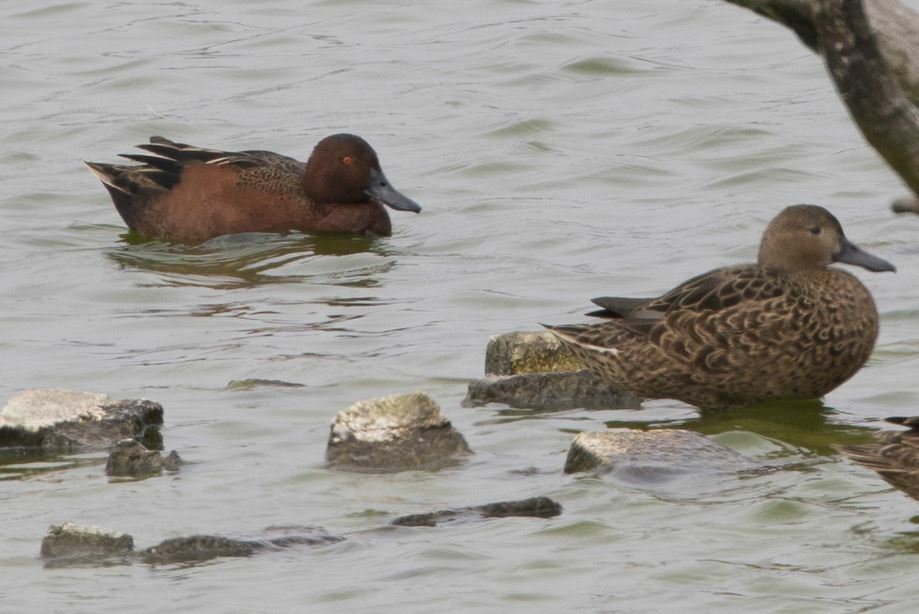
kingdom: Animalia
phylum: Chordata
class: Aves
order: Anseriformes
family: Anatidae
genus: Spatula
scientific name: Spatula cyanoptera
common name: Cinnamon teal
